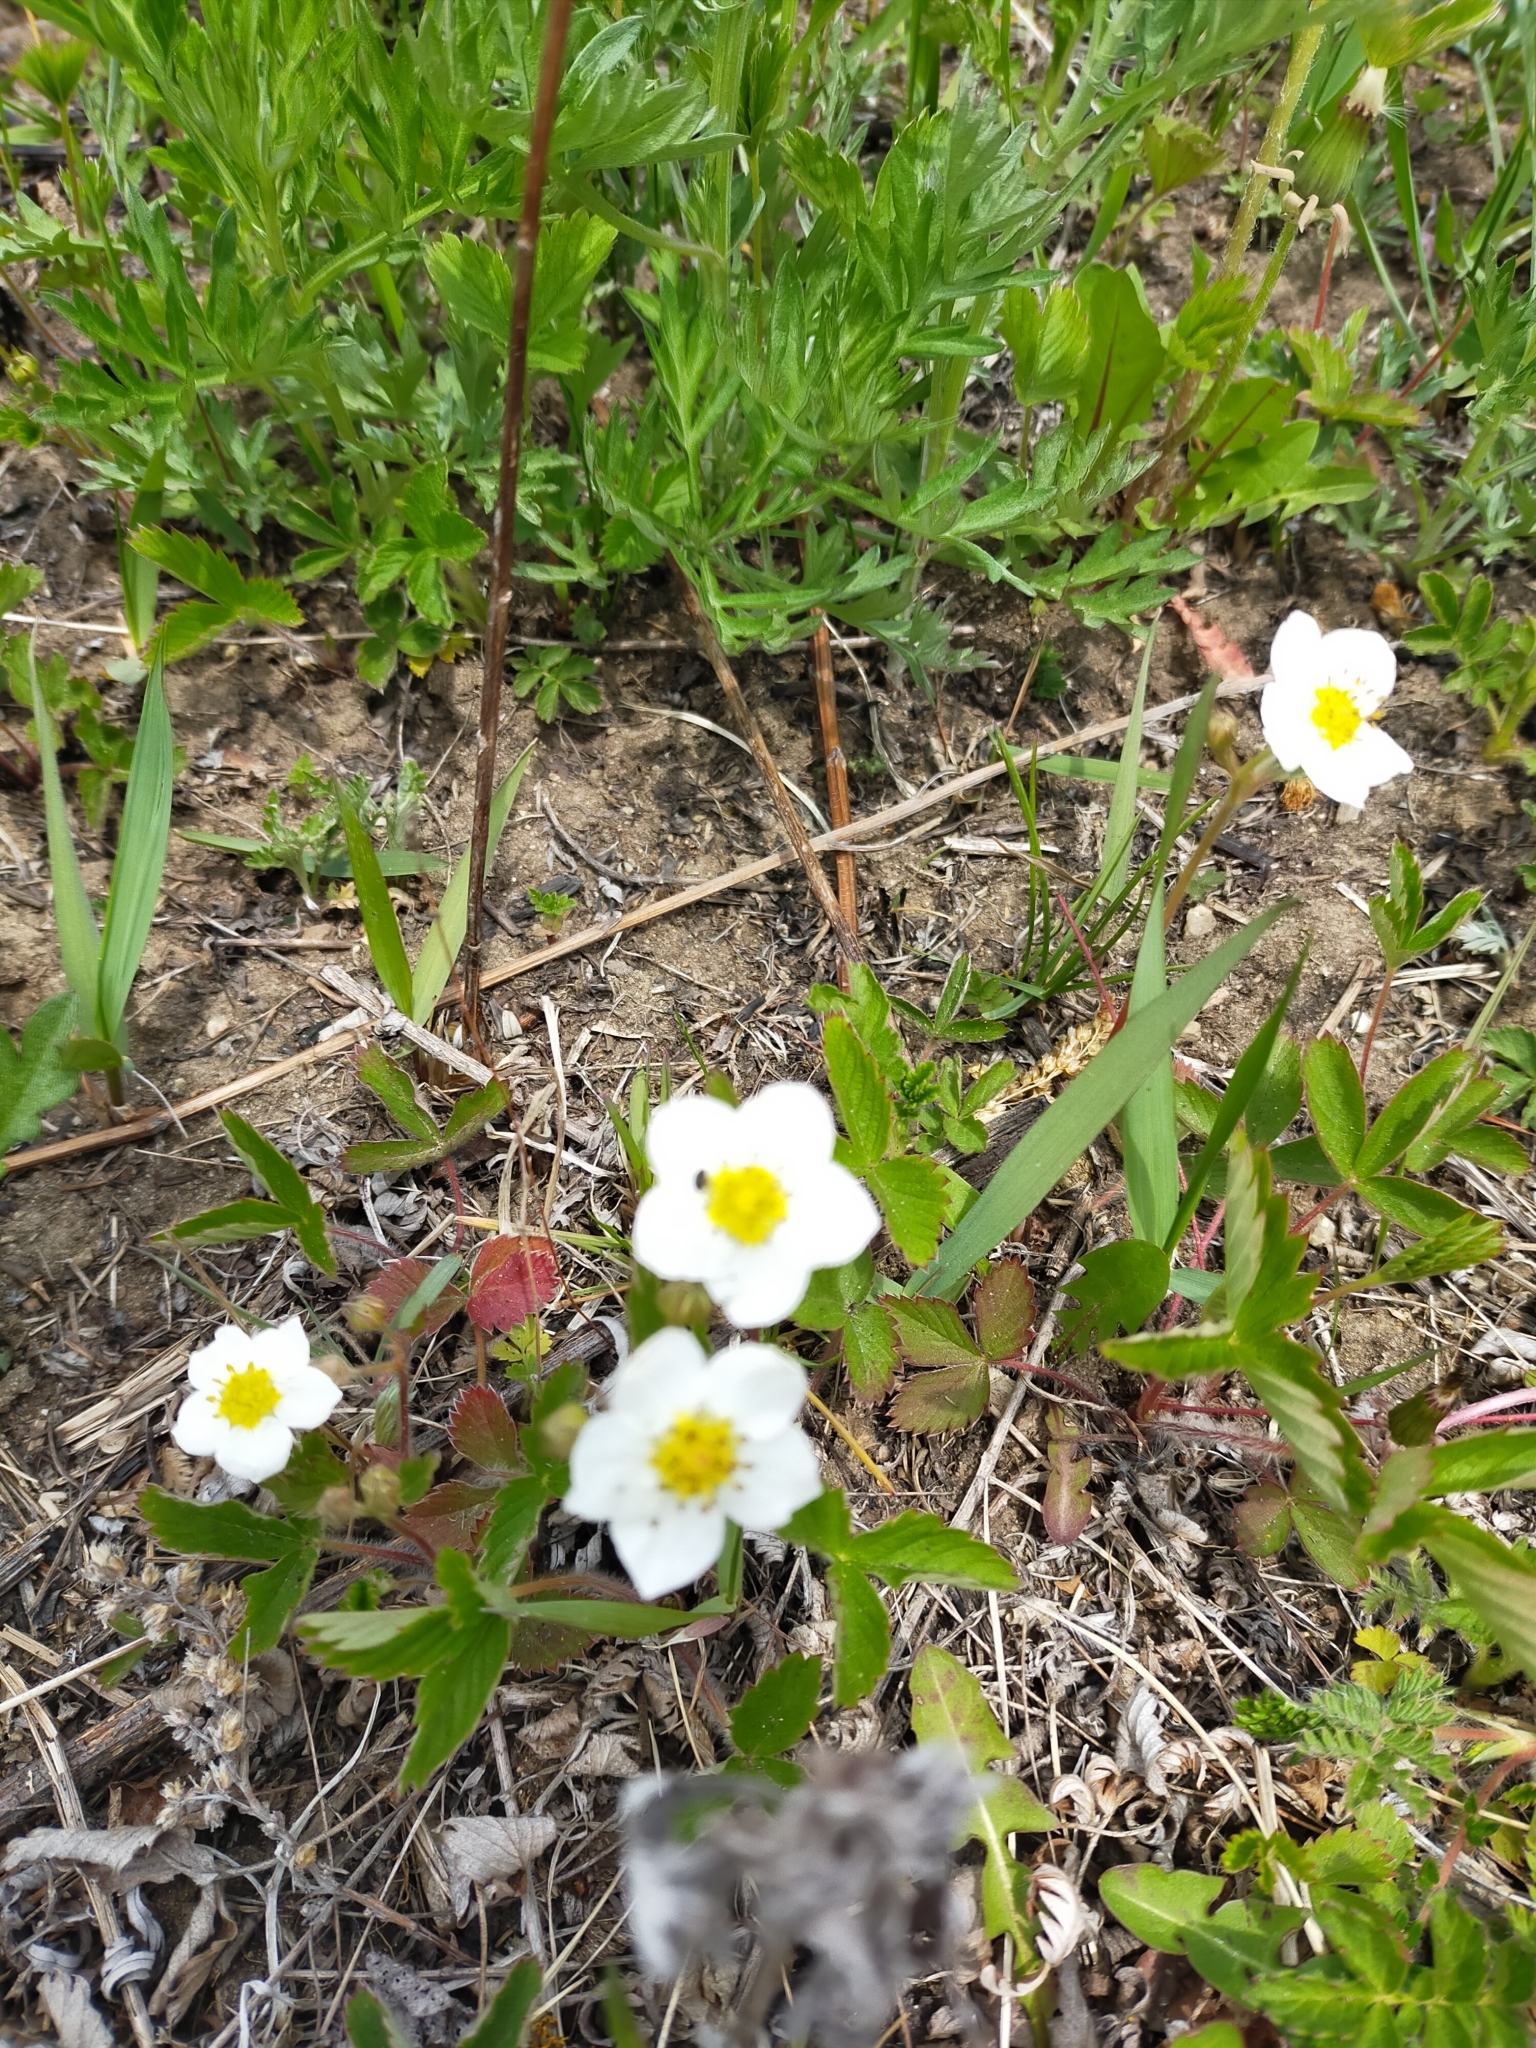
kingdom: Plantae
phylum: Tracheophyta
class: Magnoliopsida
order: Rosales
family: Rosaceae
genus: Fragaria
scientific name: Fragaria orientalis
